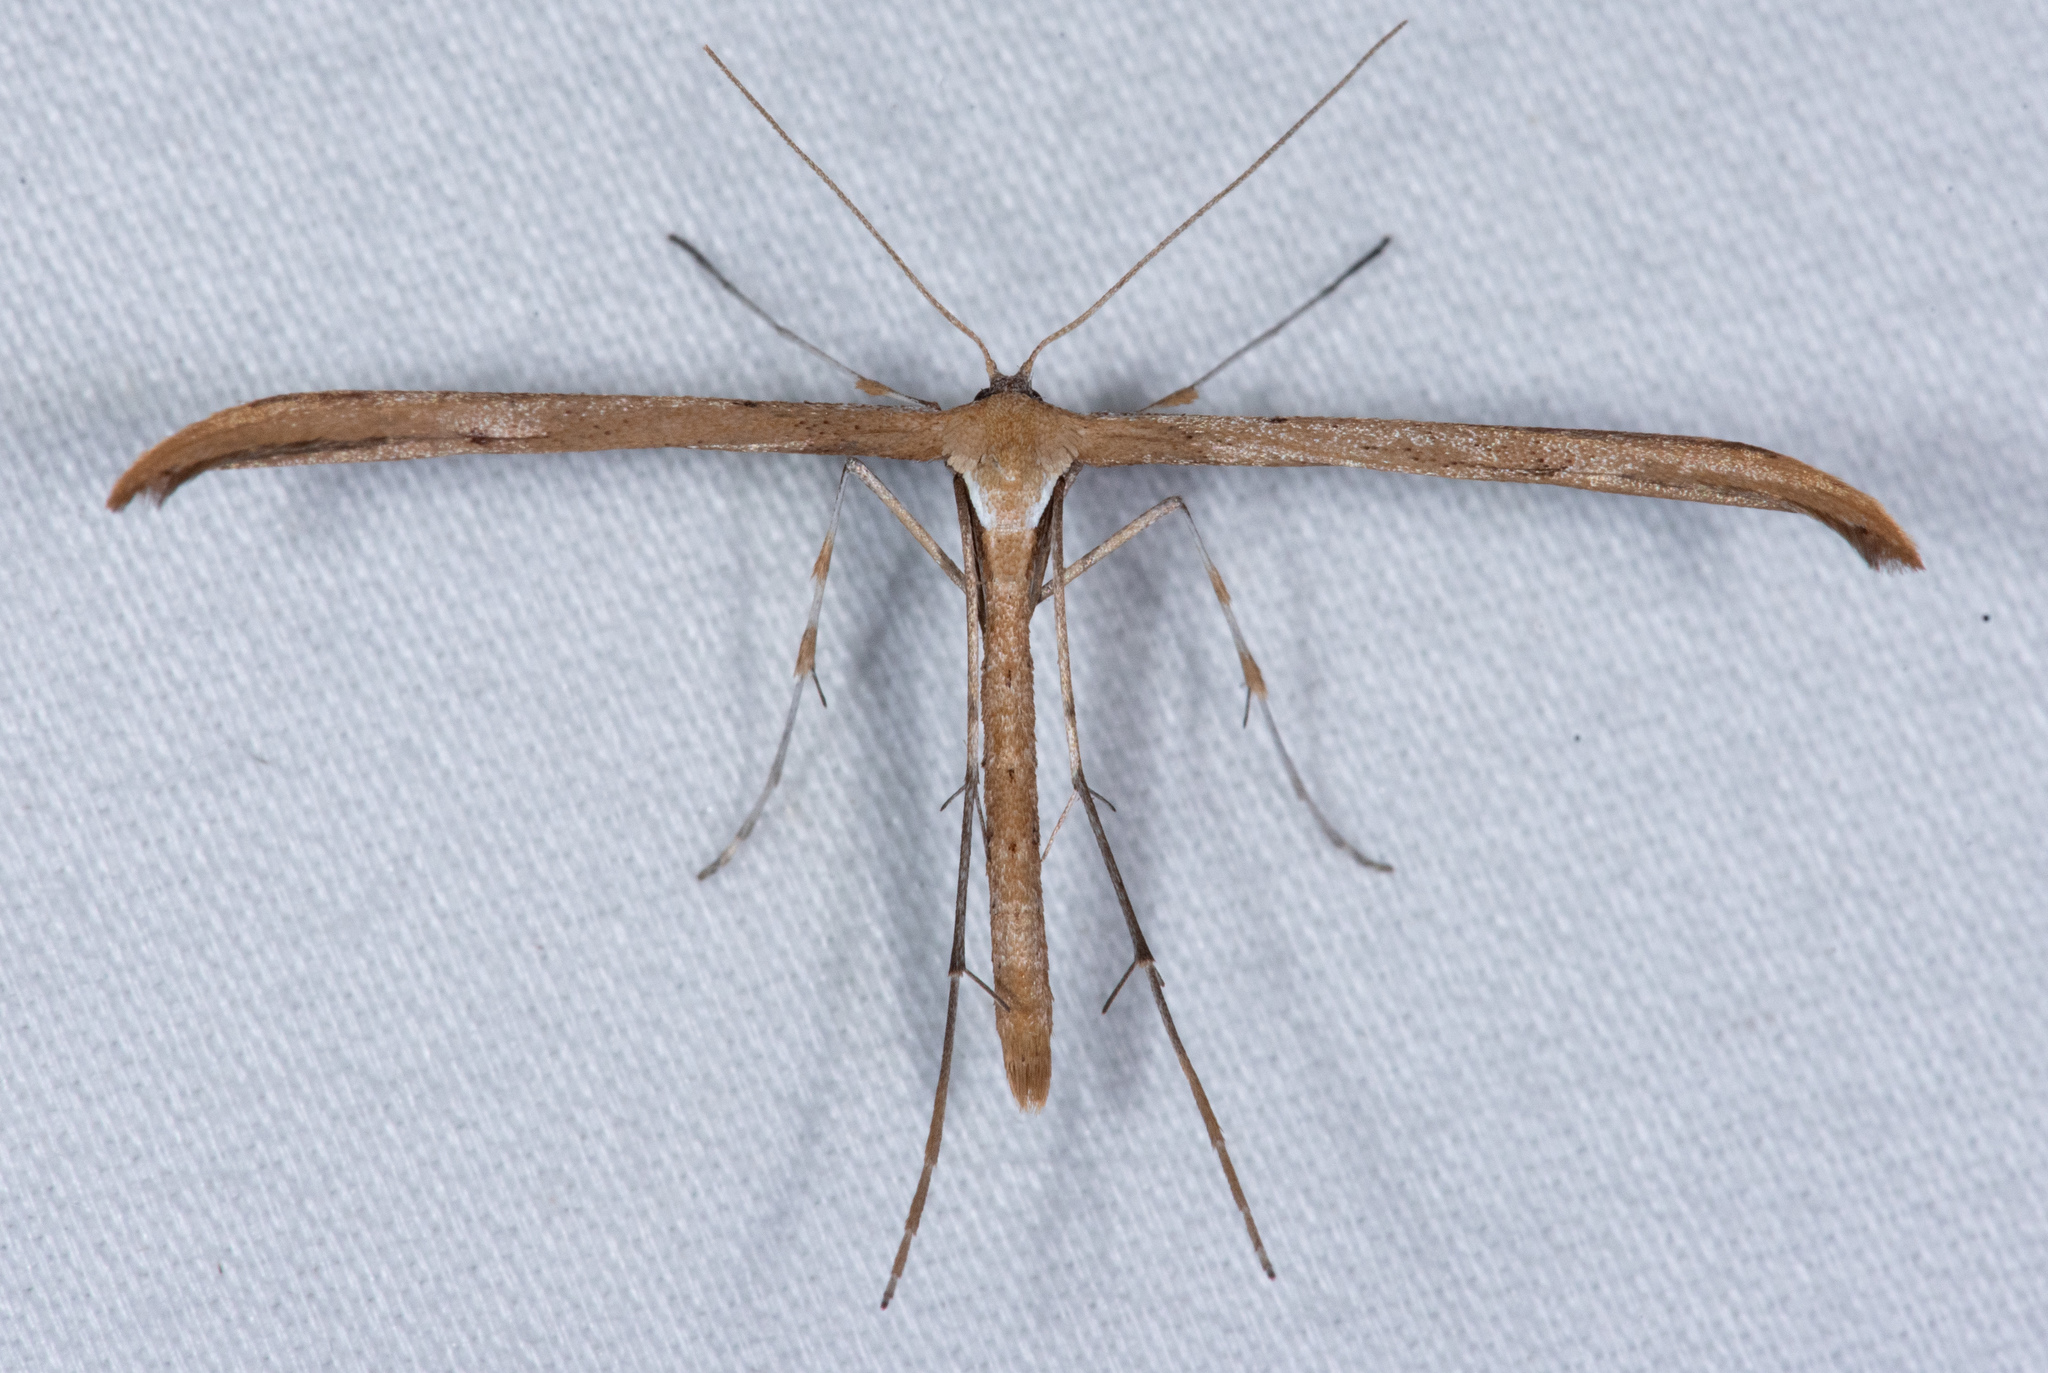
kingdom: Animalia
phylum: Arthropoda
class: Insecta
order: Lepidoptera
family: Pterophoridae
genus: Emmelina
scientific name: Emmelina monodactyla
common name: Common plume
